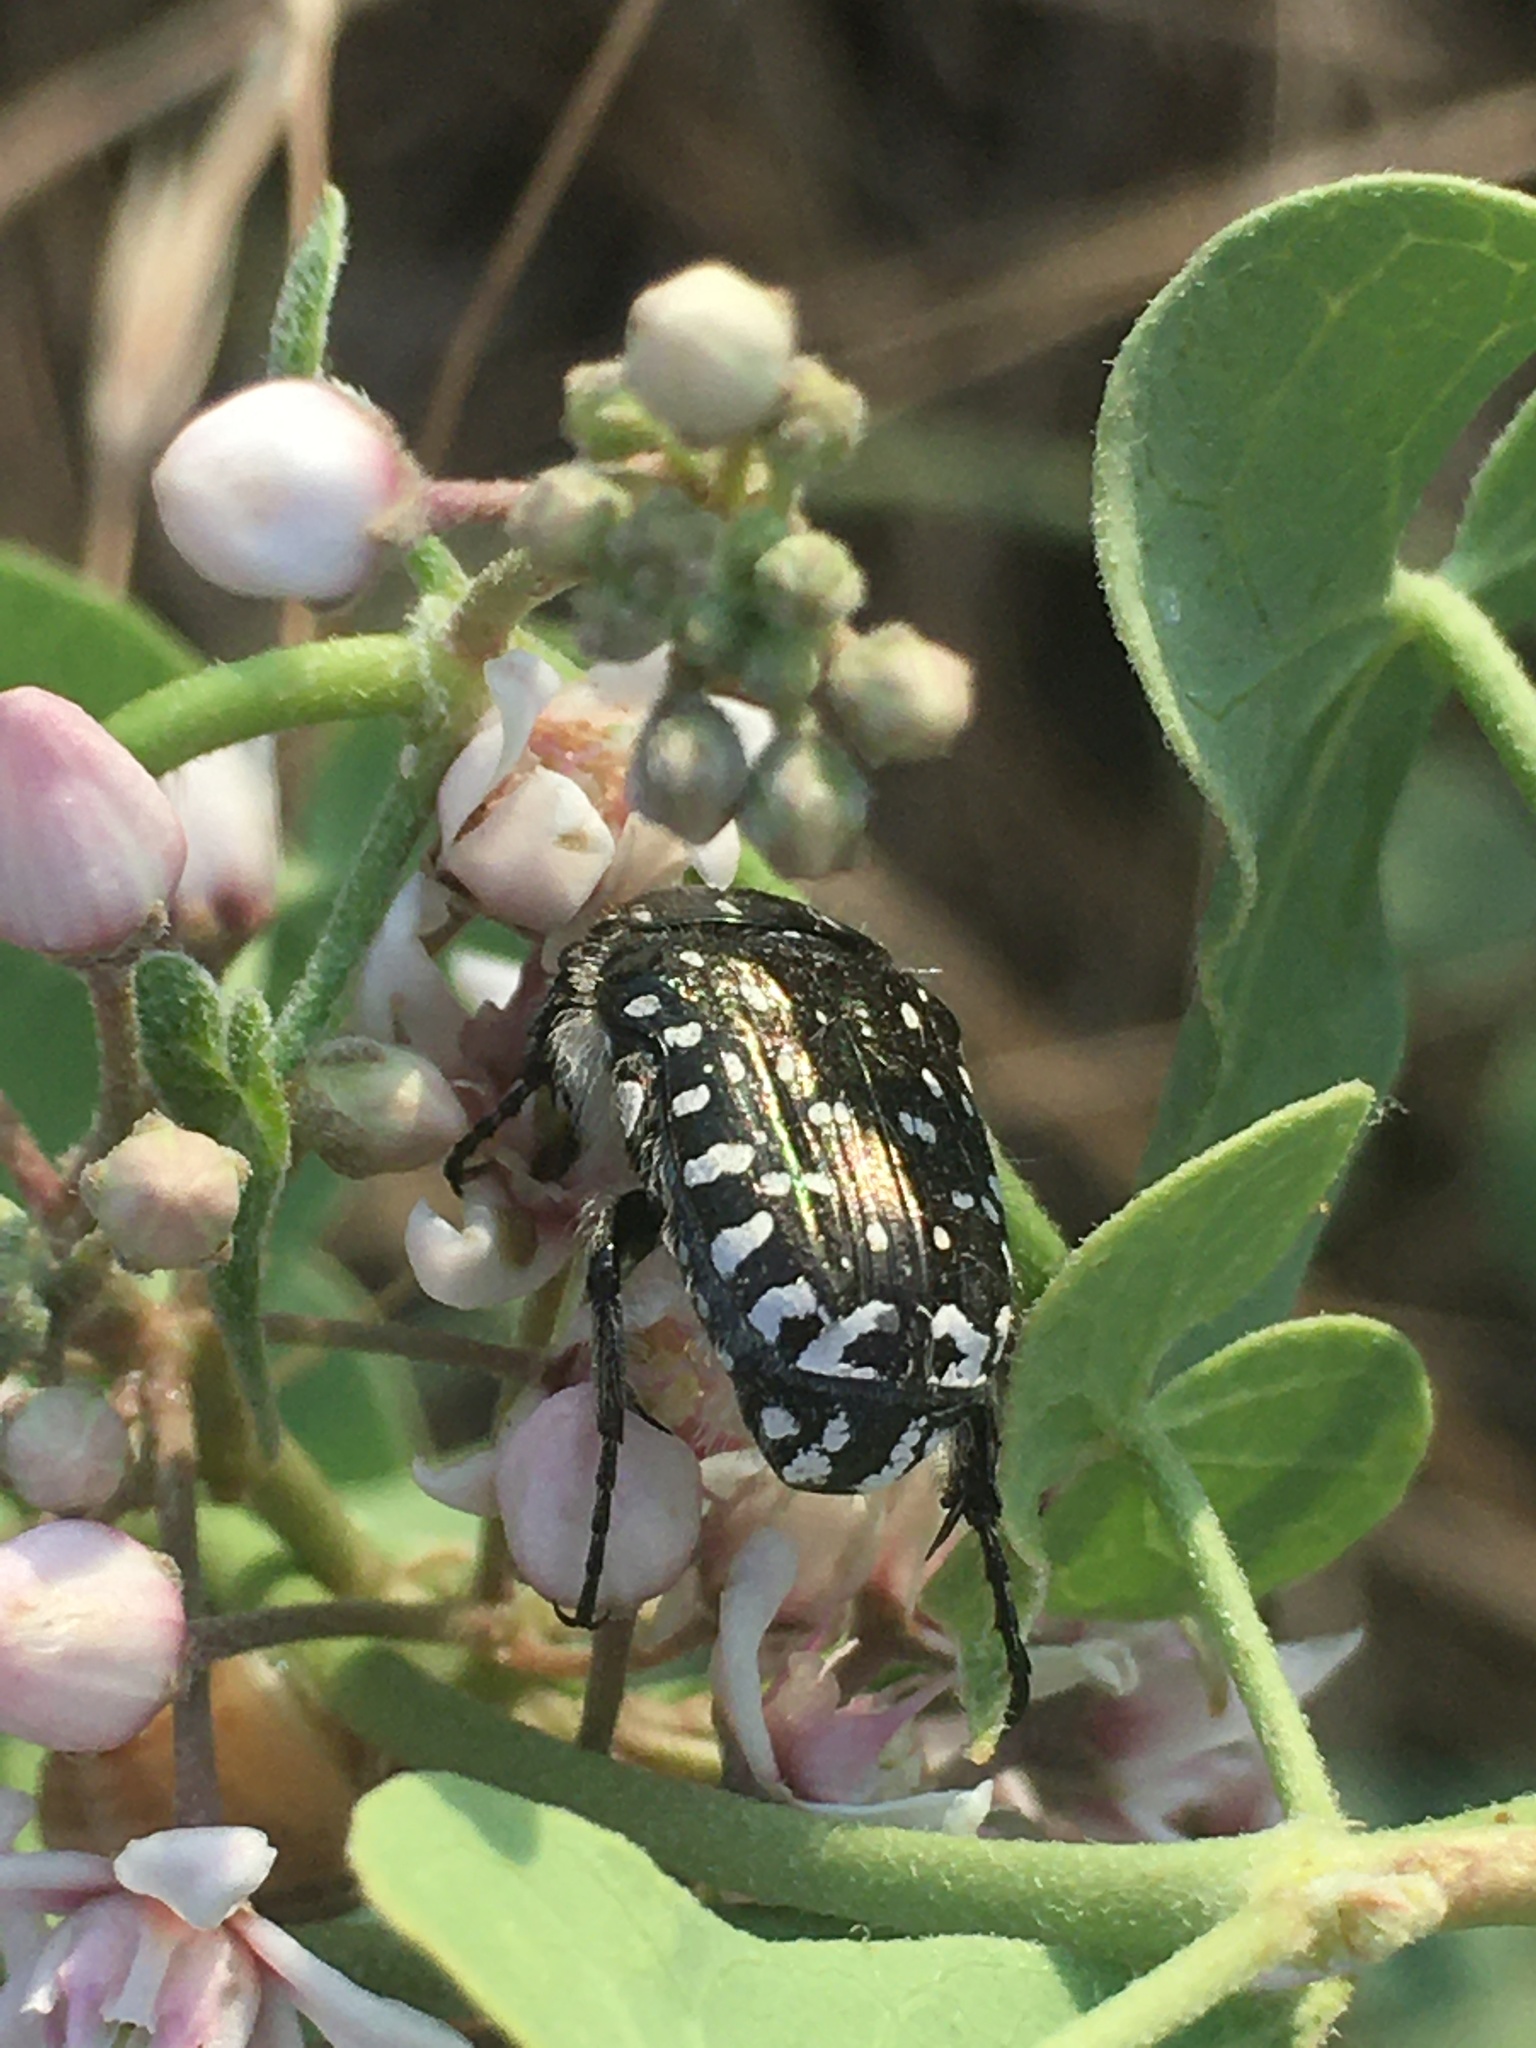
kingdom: Animalia
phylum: Arthropoda
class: Insecta
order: Coleoptera
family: Scarabaeidae
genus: Oxythyrea
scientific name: Oxythyrea funesta
